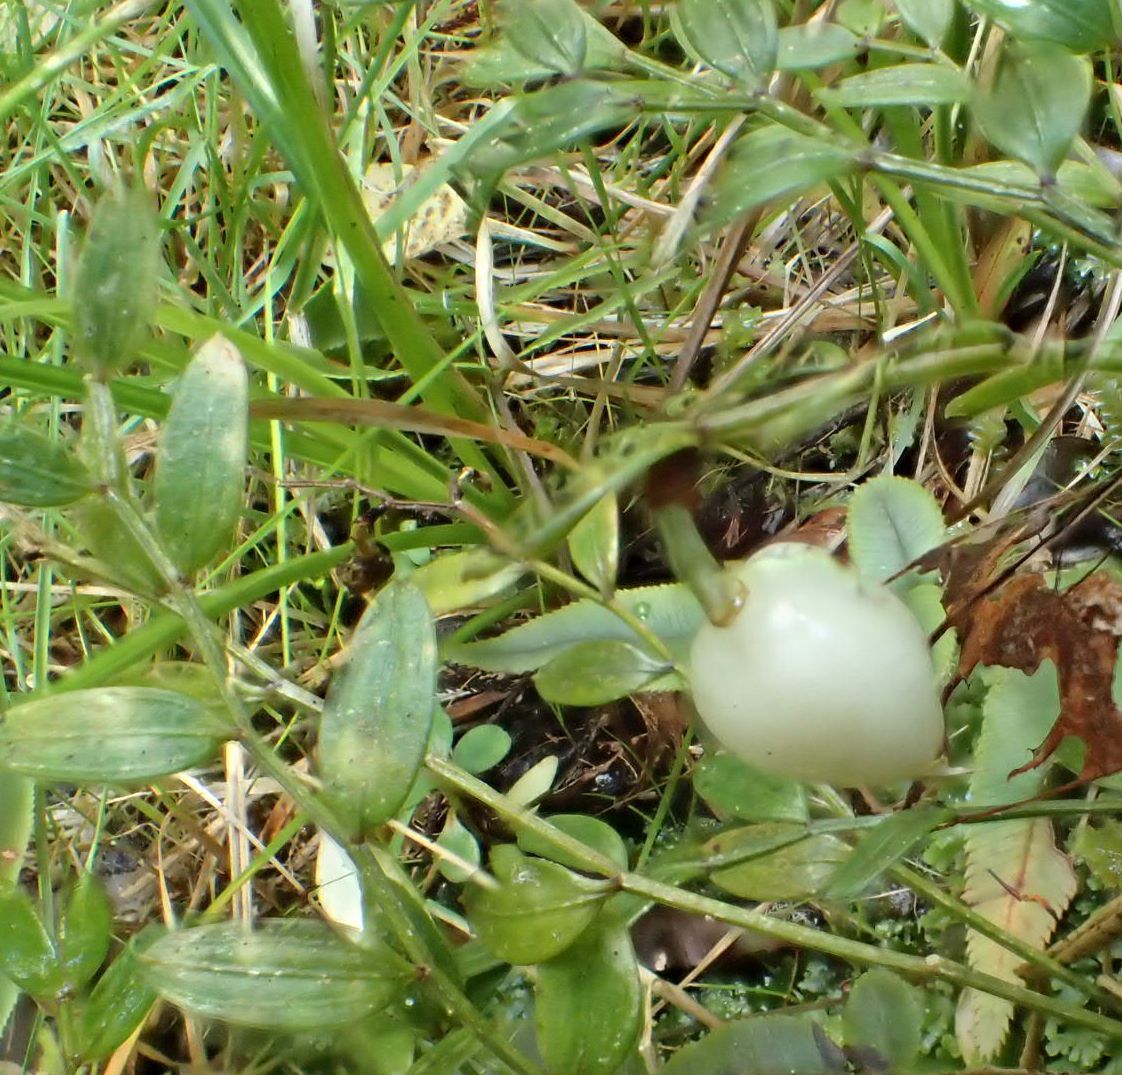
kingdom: Plantae
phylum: Tracheophyta
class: Liliopsida
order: Liliales
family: Alstroemeriaceae
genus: Luzuriaga
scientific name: Luzuriaga parviflora
